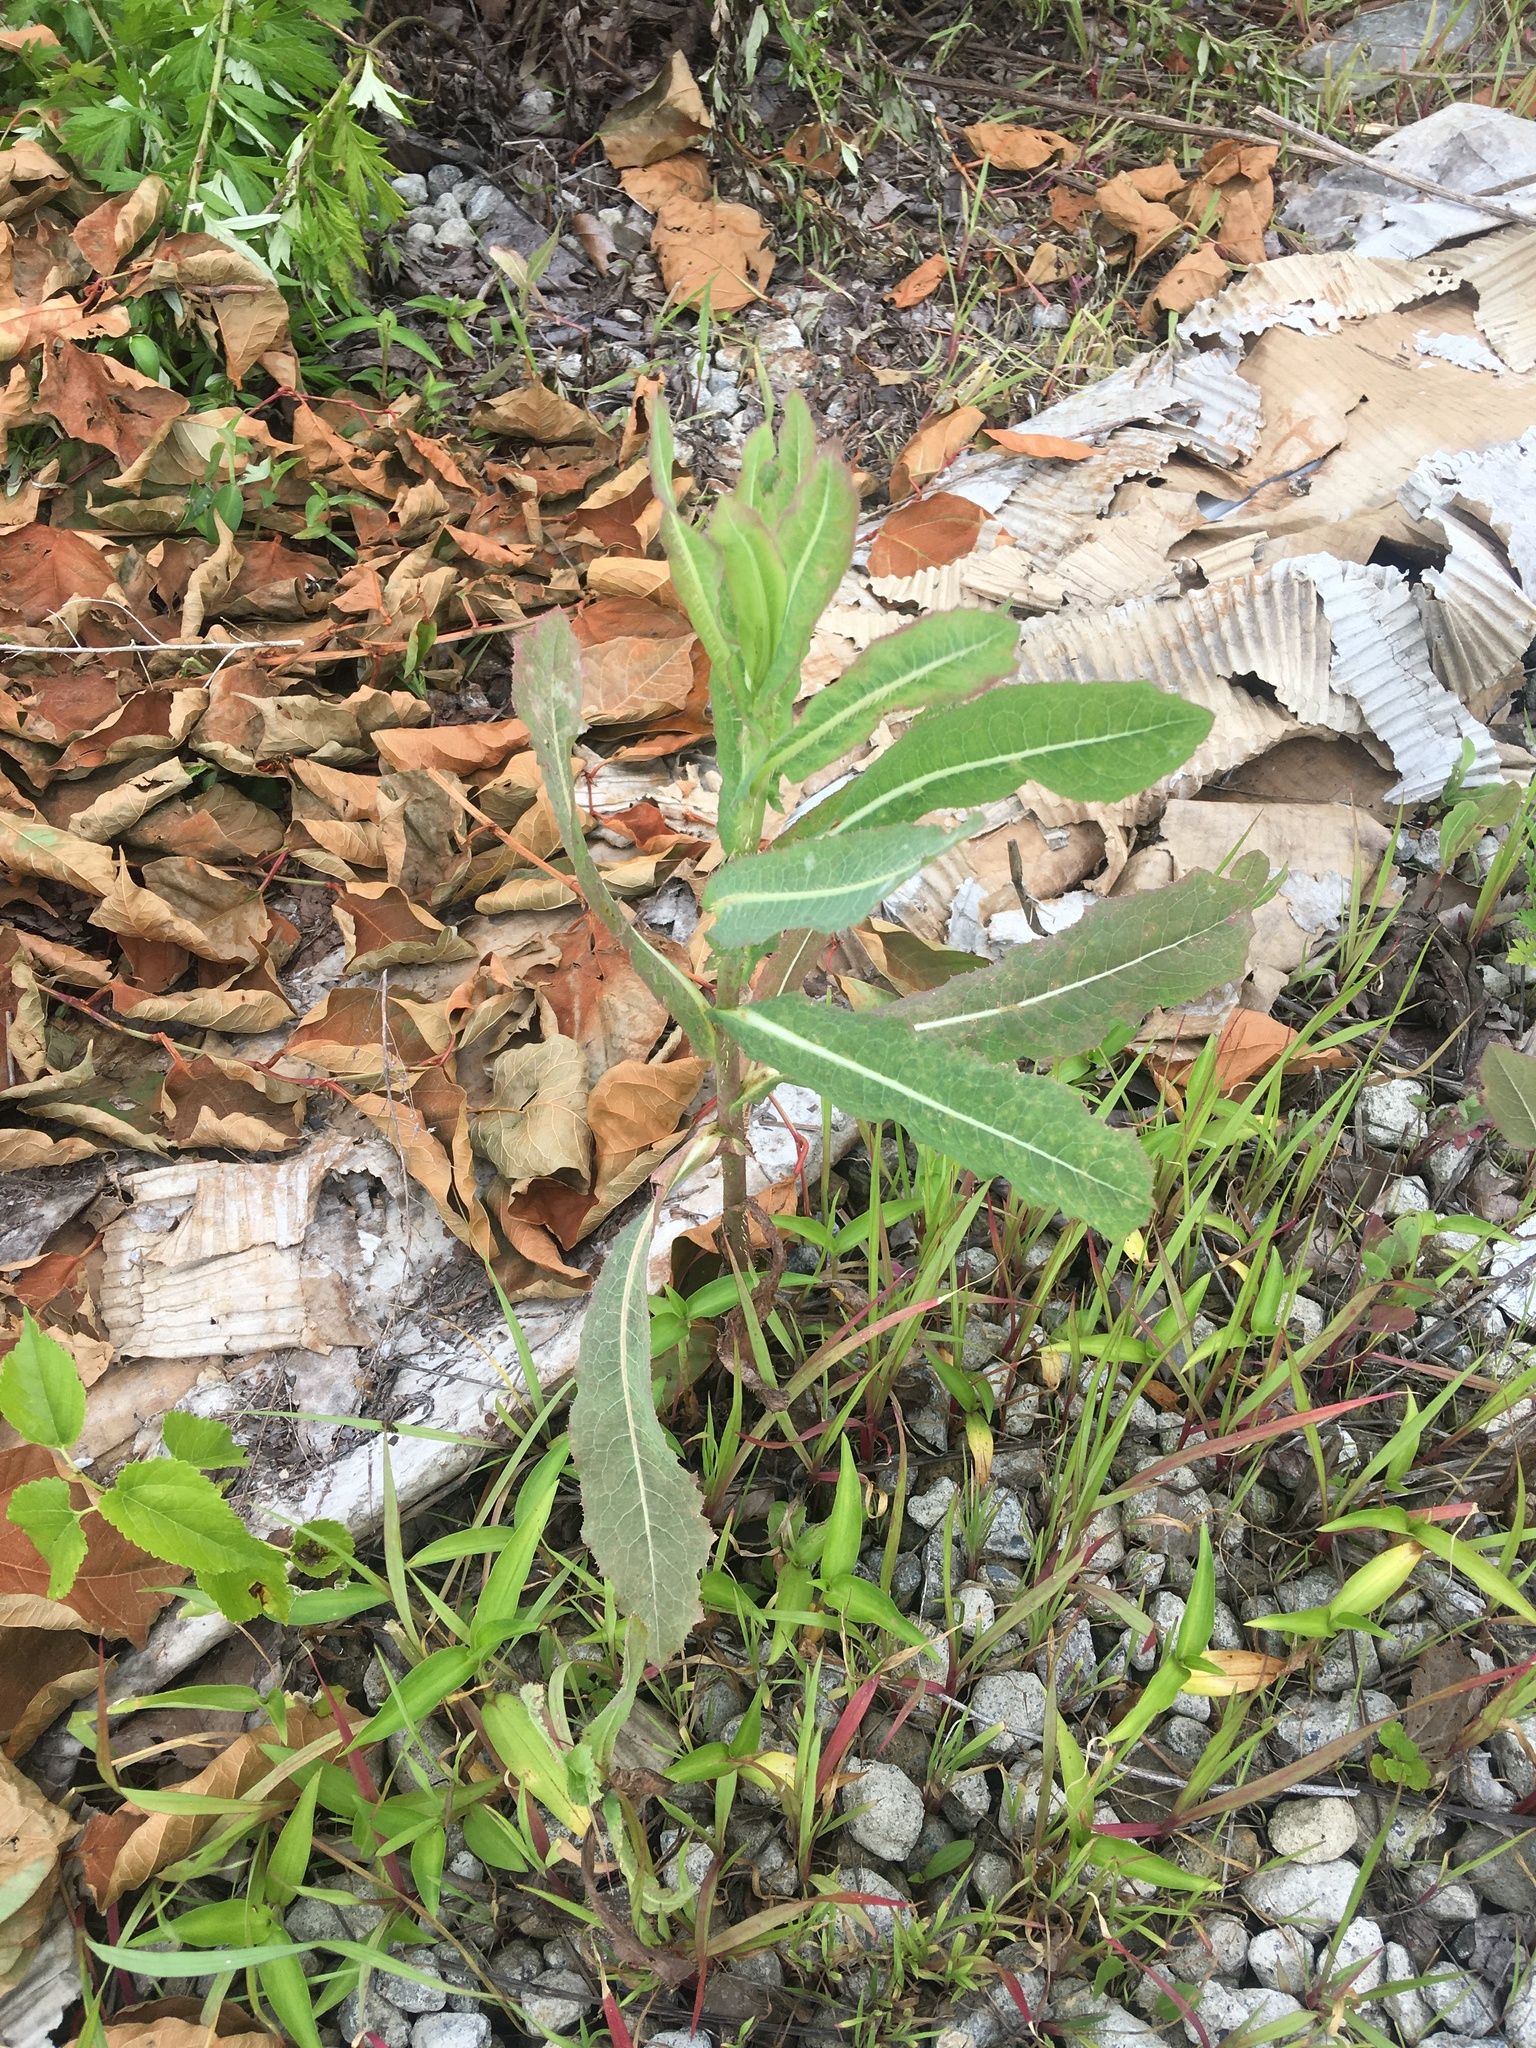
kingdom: Plantae
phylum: Tracheophyta
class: Magnoliopsida
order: Asterales
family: Asteraceae
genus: Lactuca
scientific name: Lactuca serriola
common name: Prickly lettuce
